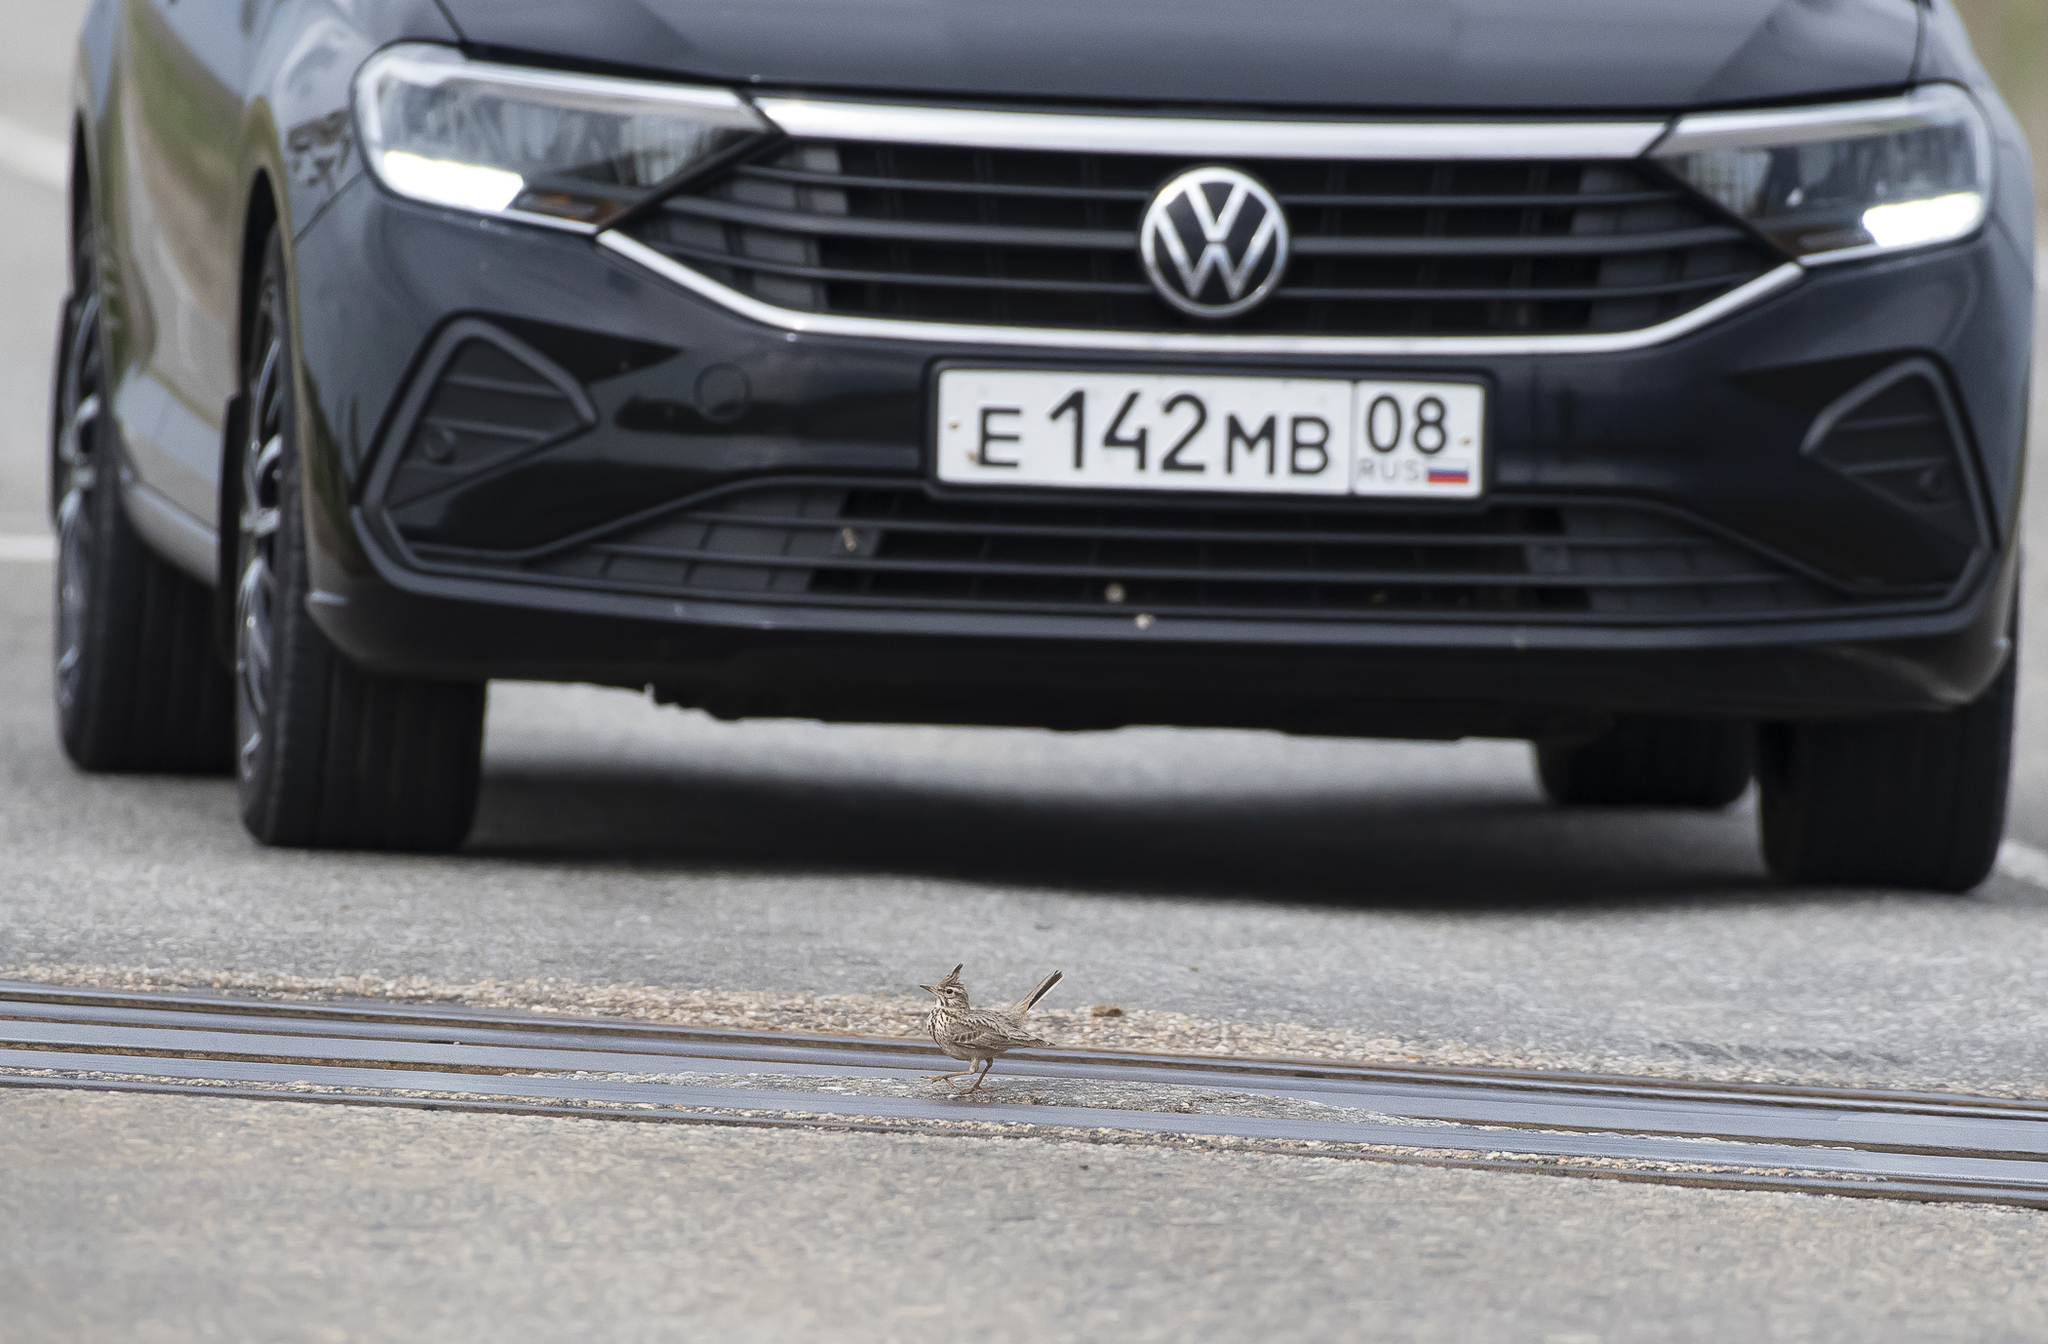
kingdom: Animalia
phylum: Chordata
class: Aves
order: Passeriformes
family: Alaudidae
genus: Galerida
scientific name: Galerida cristata
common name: Crested lark
